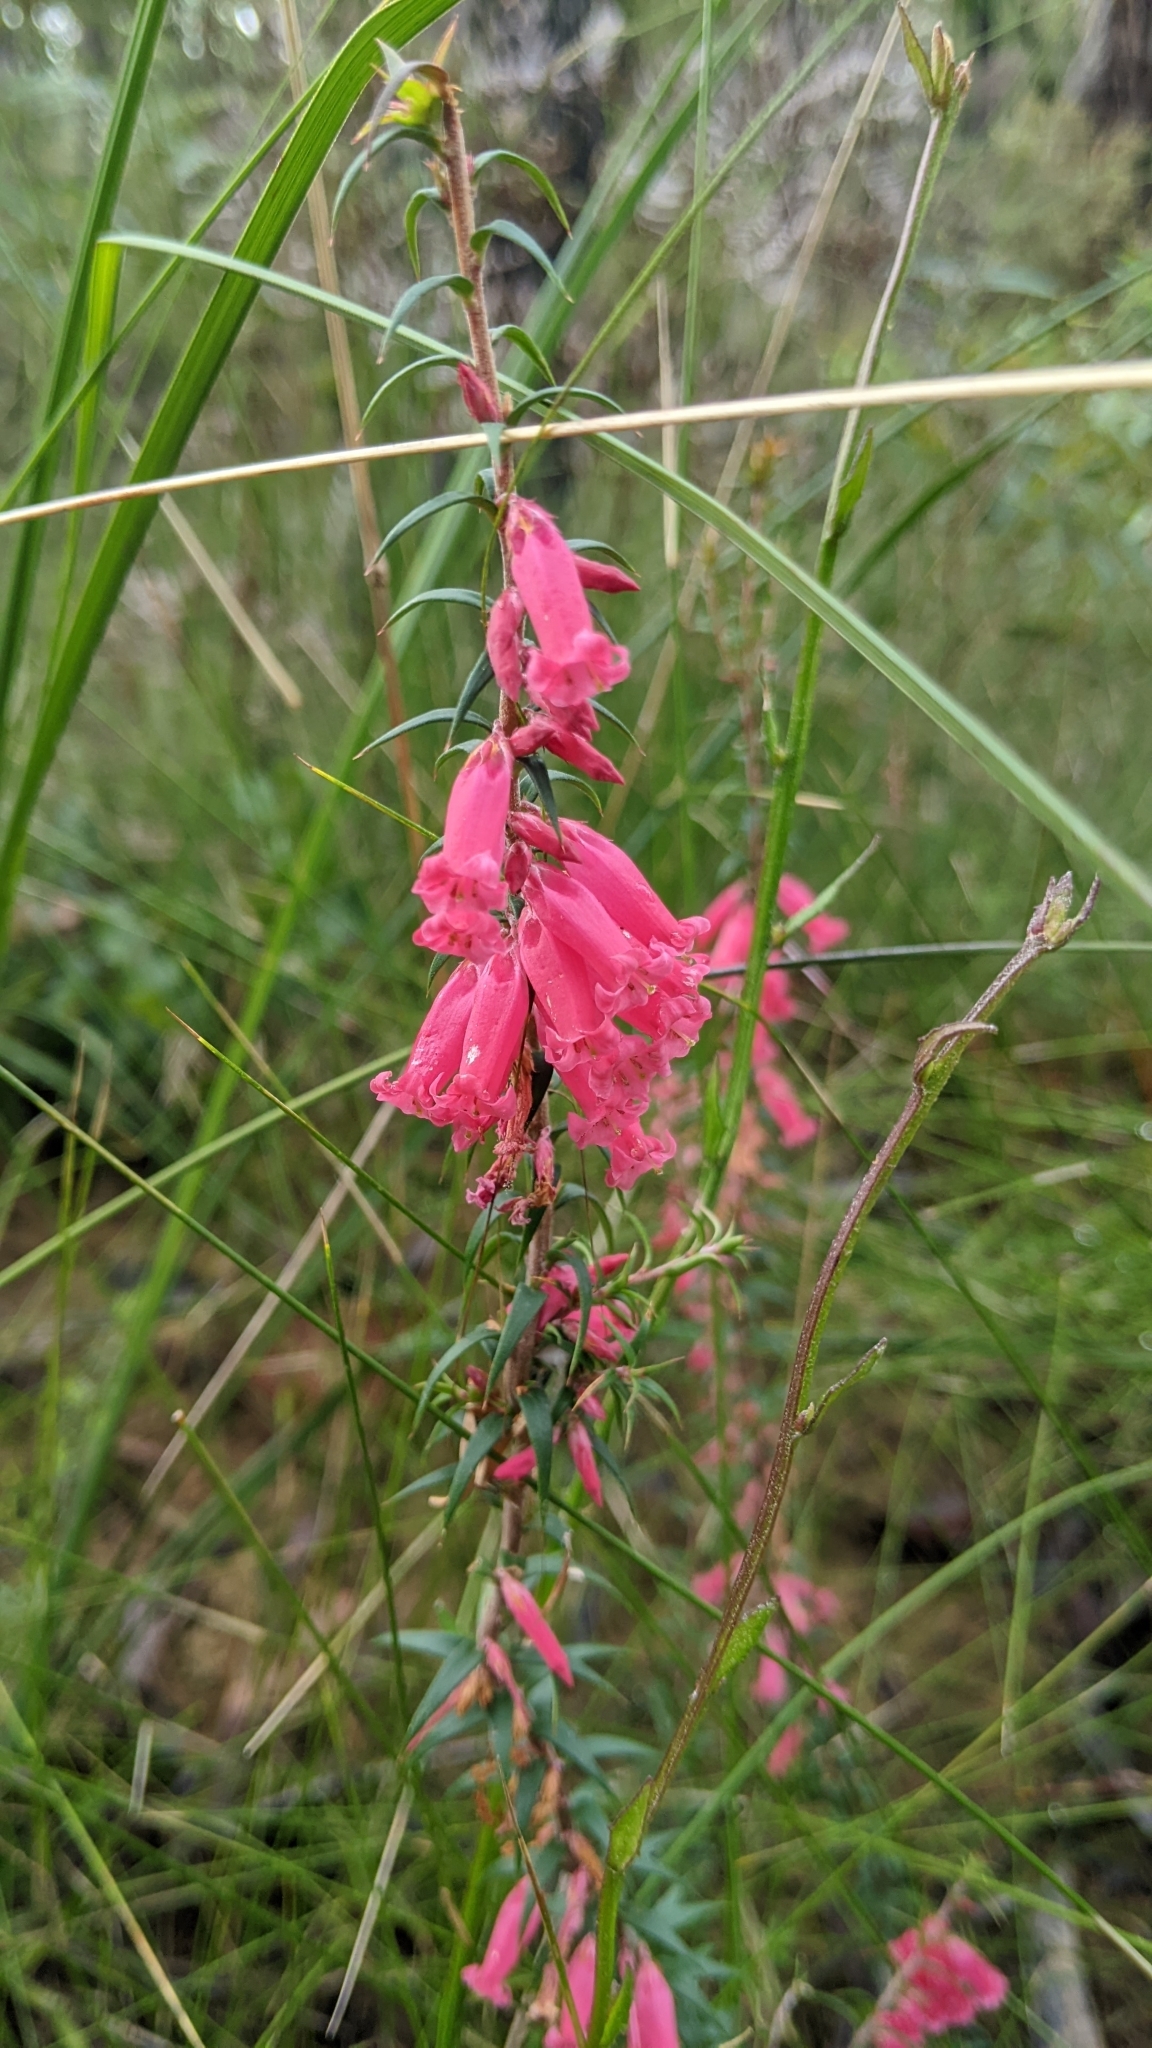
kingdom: Plantae
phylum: Tracheophyta
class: Magnoliopsida
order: Ericales
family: Ericaceae
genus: Epacris
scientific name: Epacris impressa
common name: Common-heath
